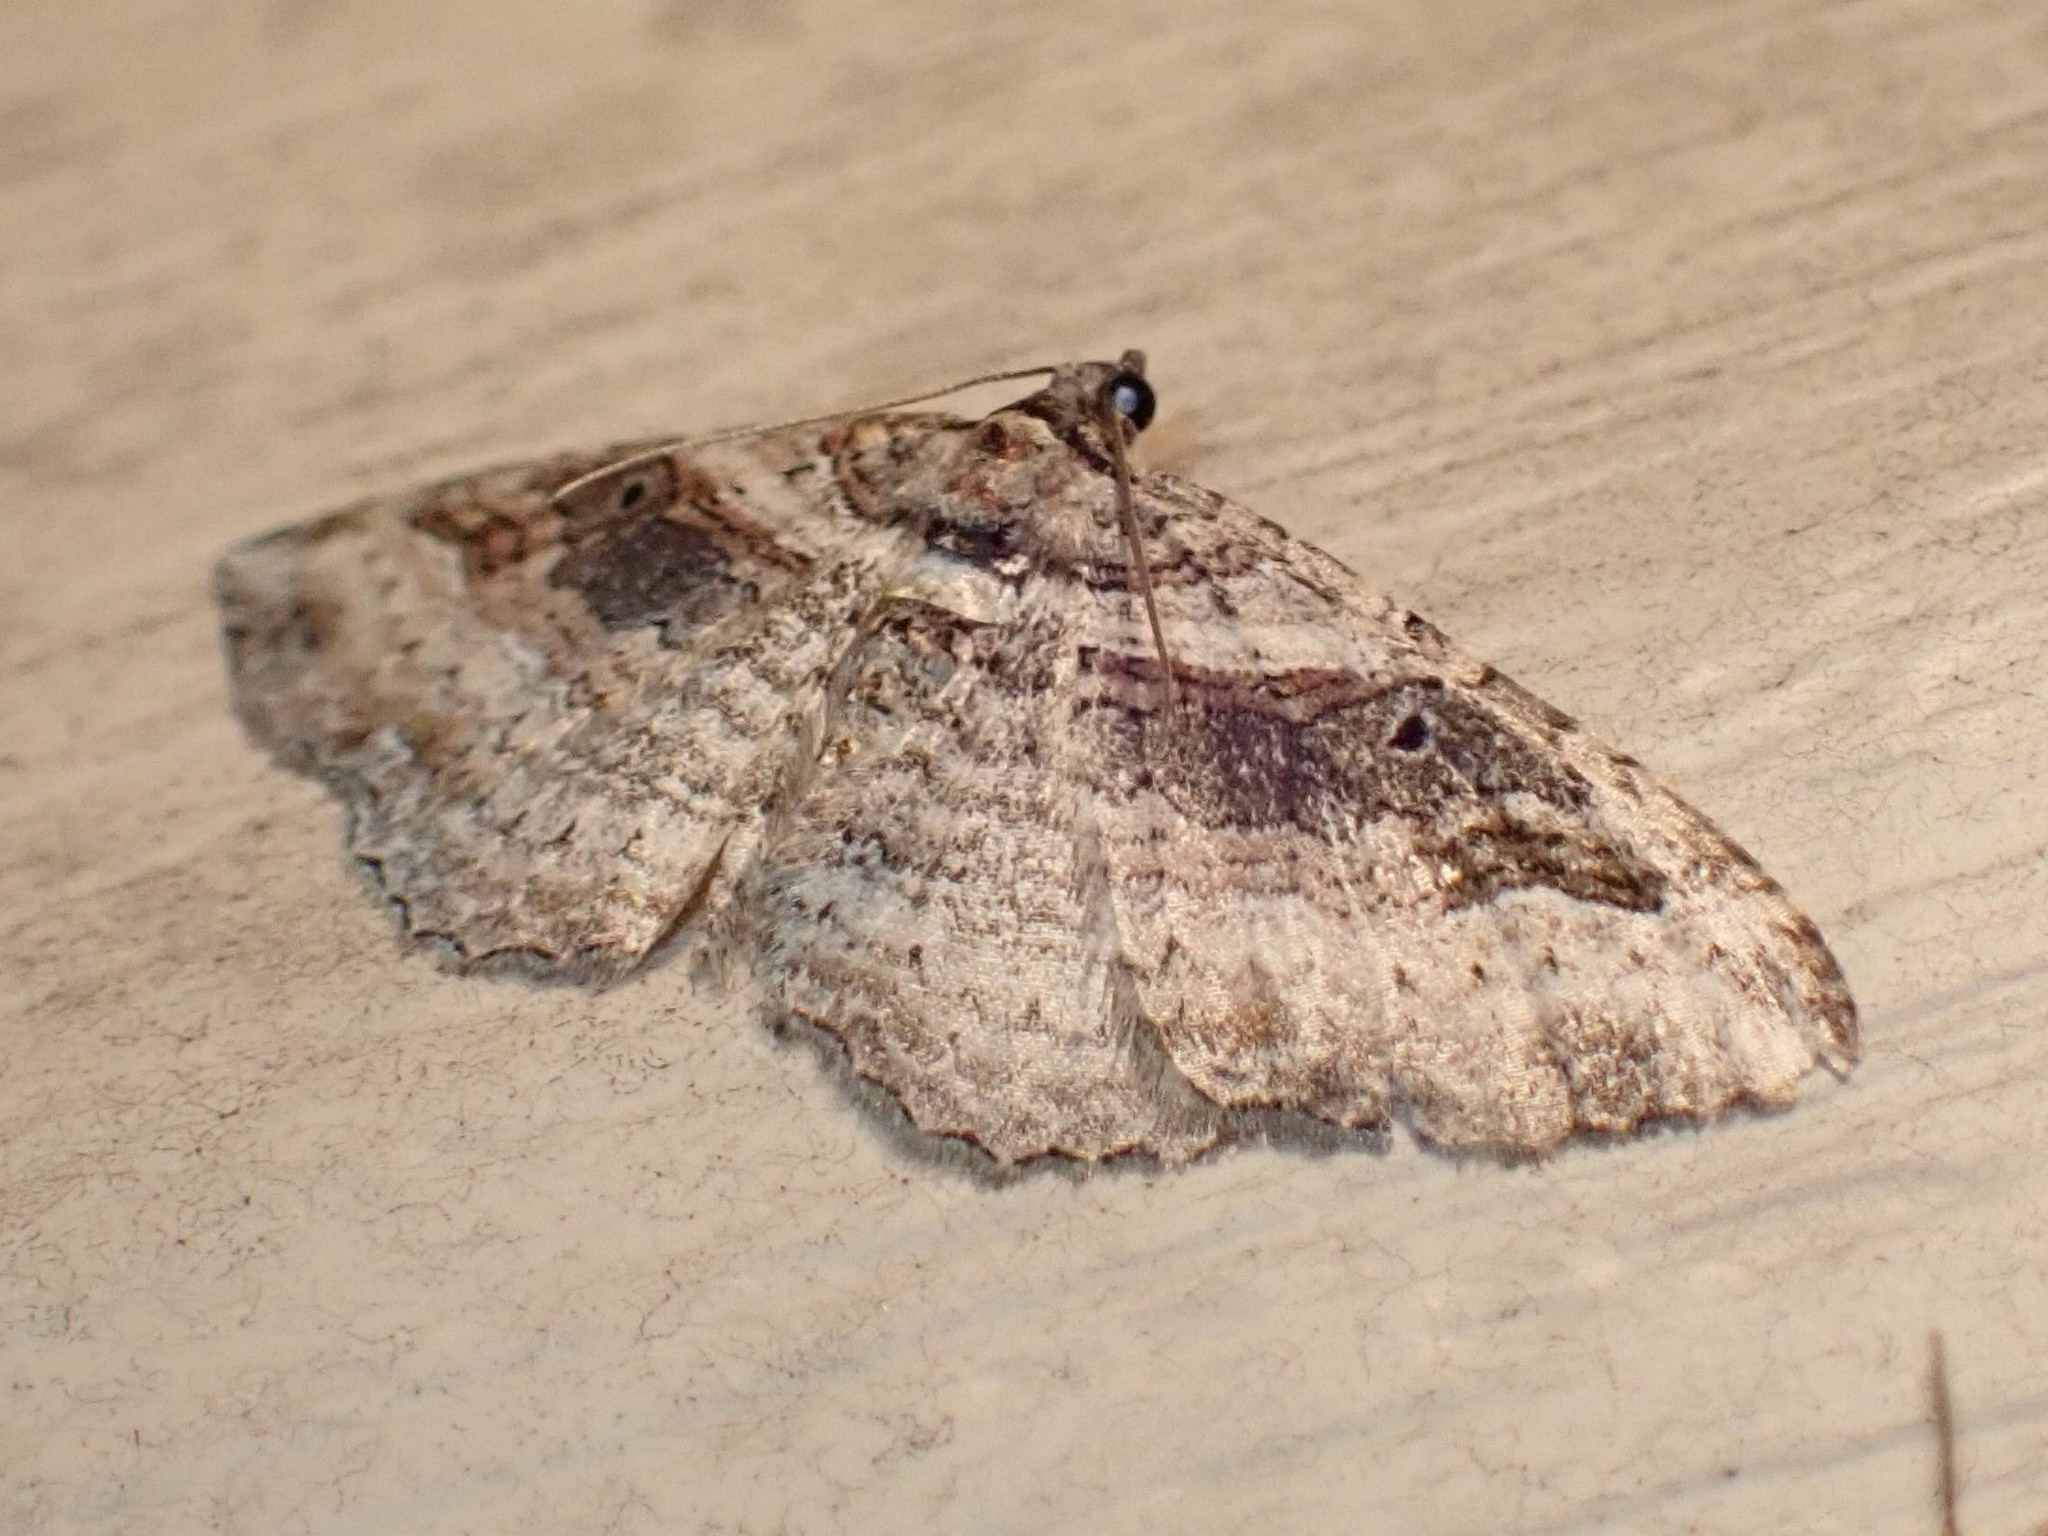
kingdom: Animalia
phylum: Arthropoda
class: Insecta
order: Lepidoptera
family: Geometridae
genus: Costaconvexa
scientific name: Costaconvexa centrostrigaria
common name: Bent-line carpet
